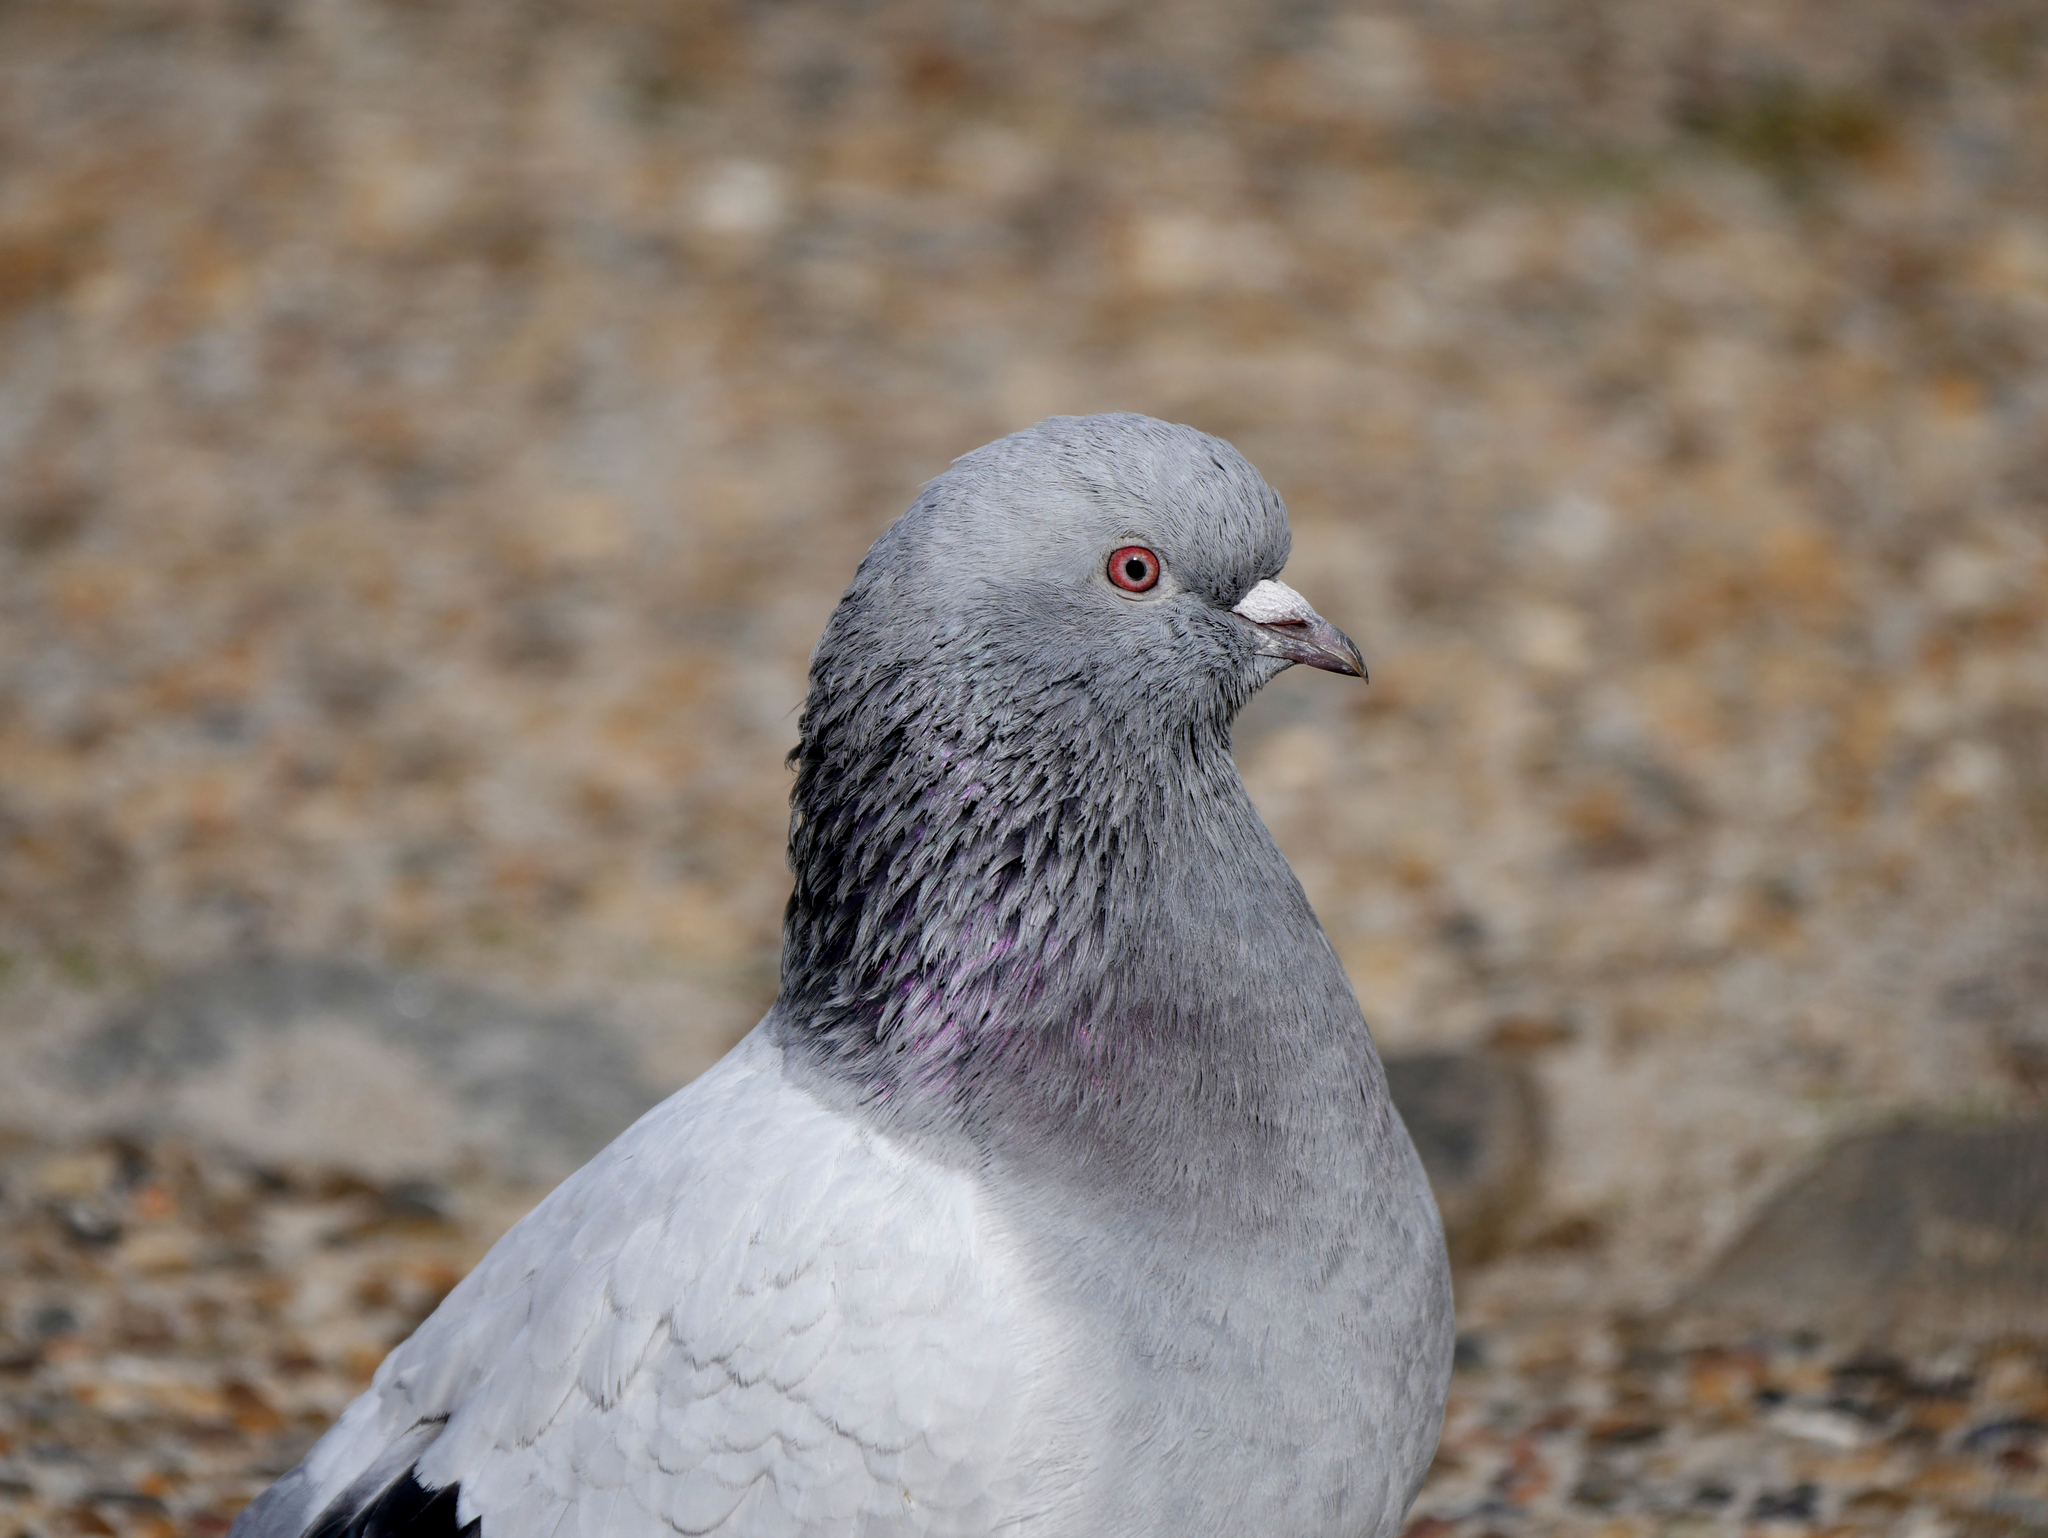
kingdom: Animalia
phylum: Chordata
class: Aves
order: Columbiformes
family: Columbidae
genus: Columba
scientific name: Columba livia
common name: Rock pigeon
